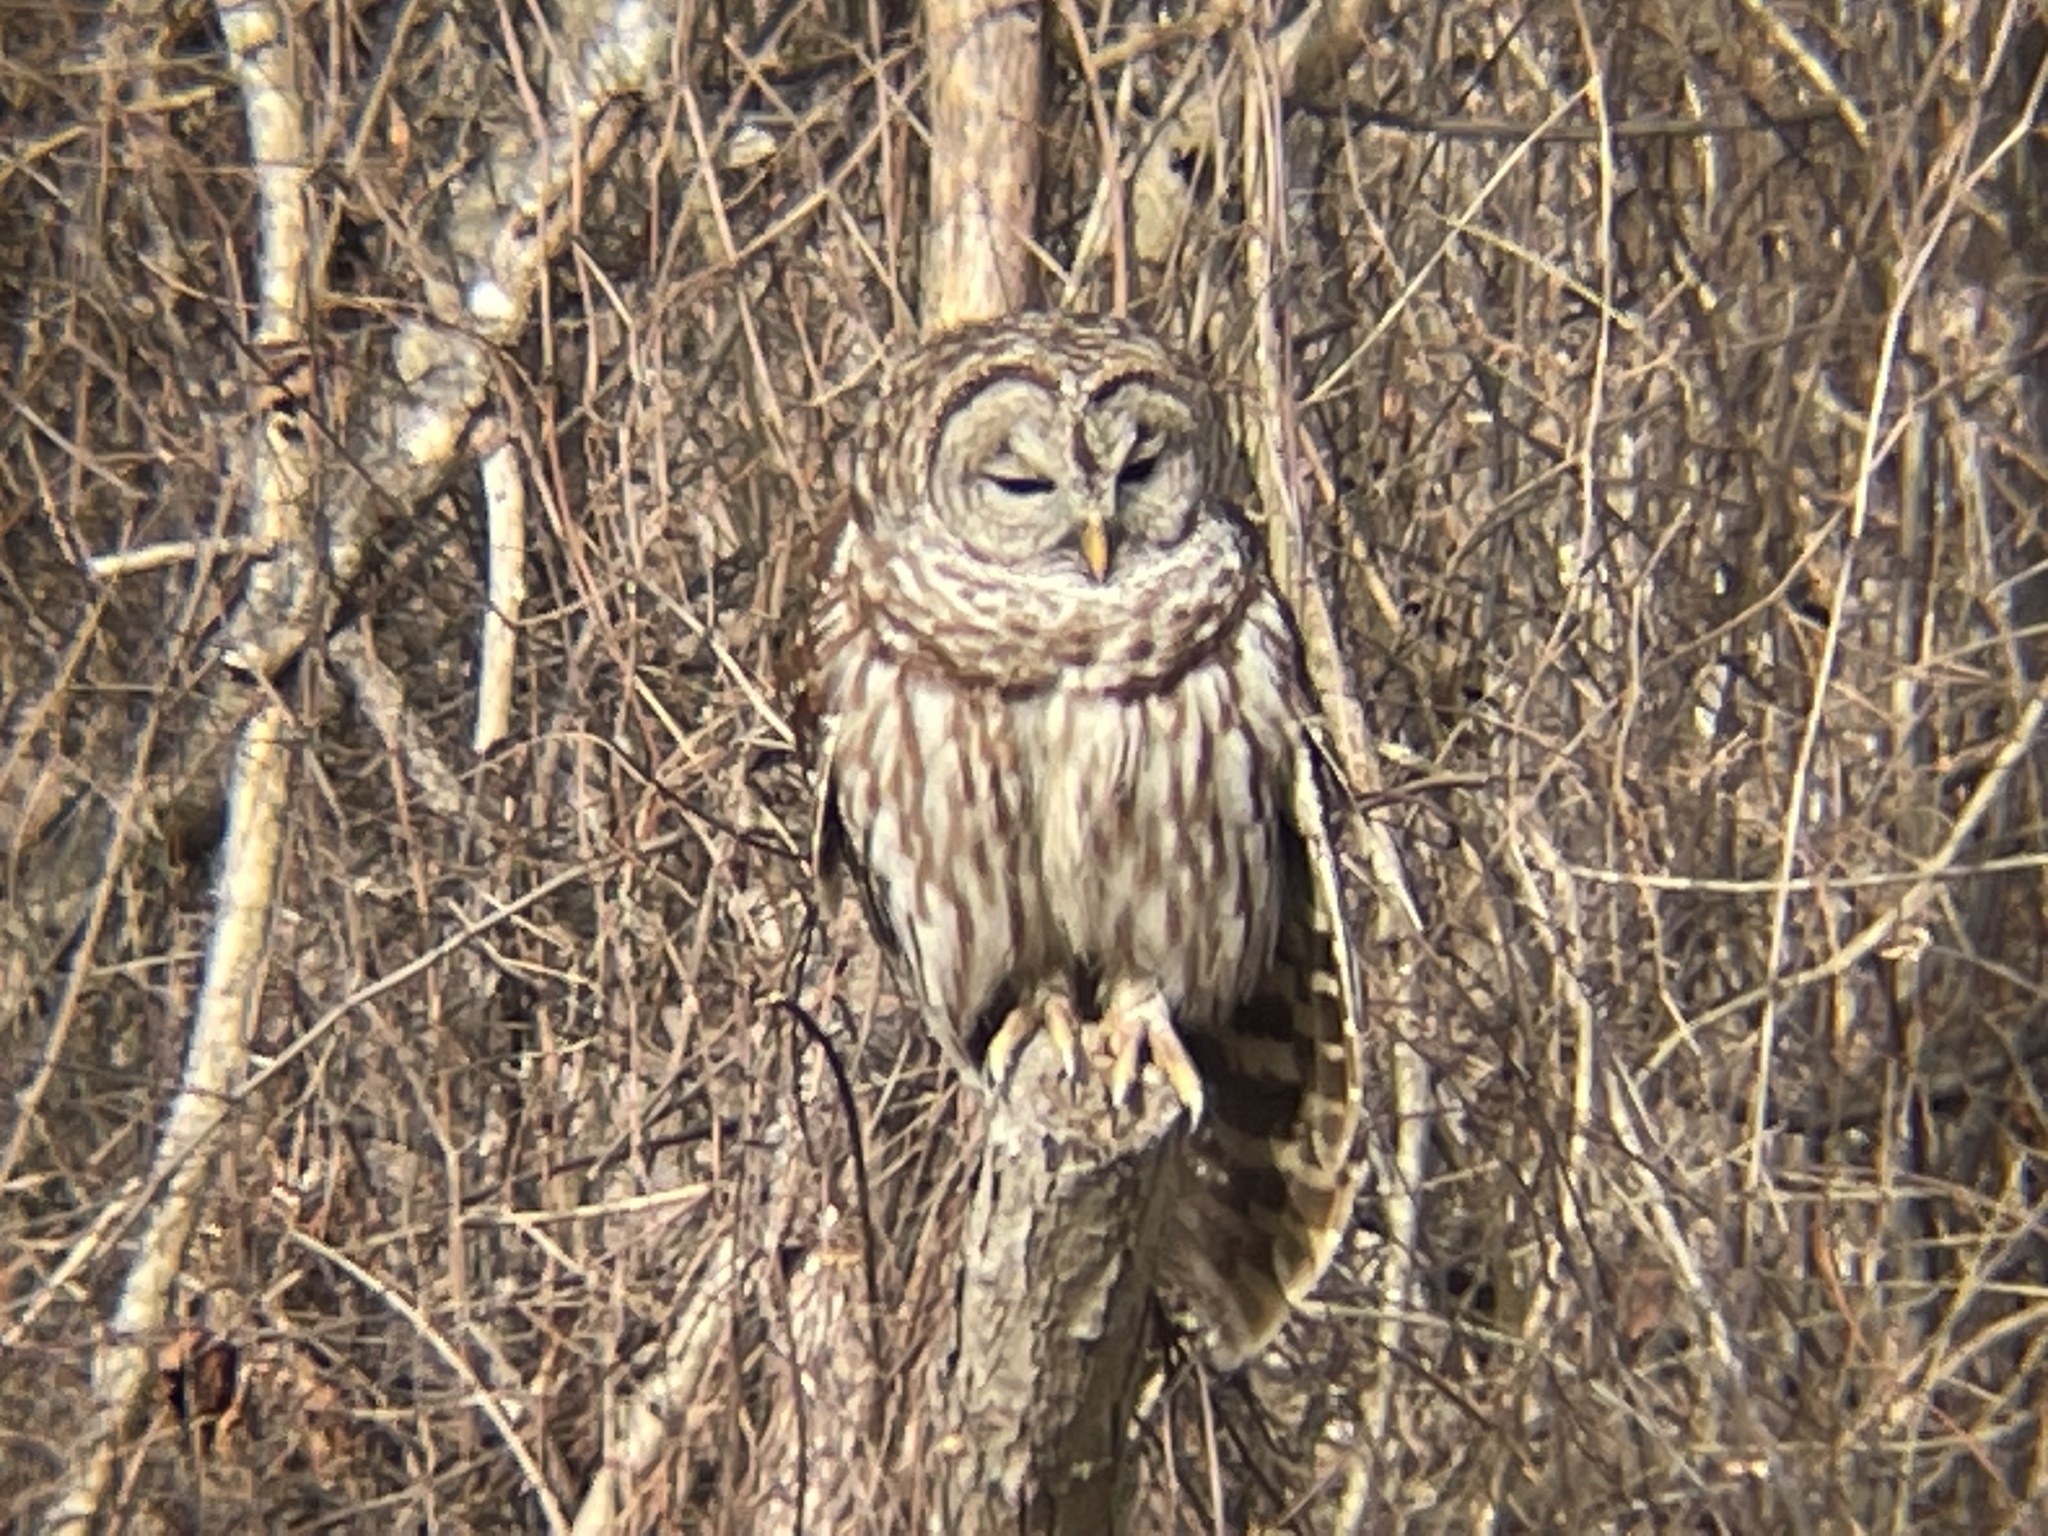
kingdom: Animalia
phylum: Chordata
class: Aves
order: Strigiformes
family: Strigidae
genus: Strix
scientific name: Strix varia
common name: Barred owl
